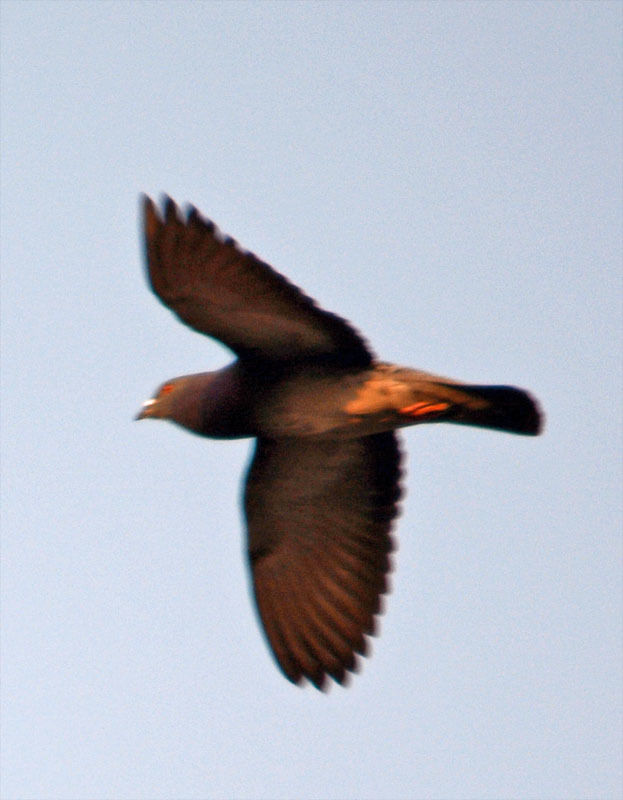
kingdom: Animalia
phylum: Chordata
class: Aves
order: Columbiformes
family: Columbidae
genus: Columba
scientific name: Columba livia
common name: Rock pigeon
